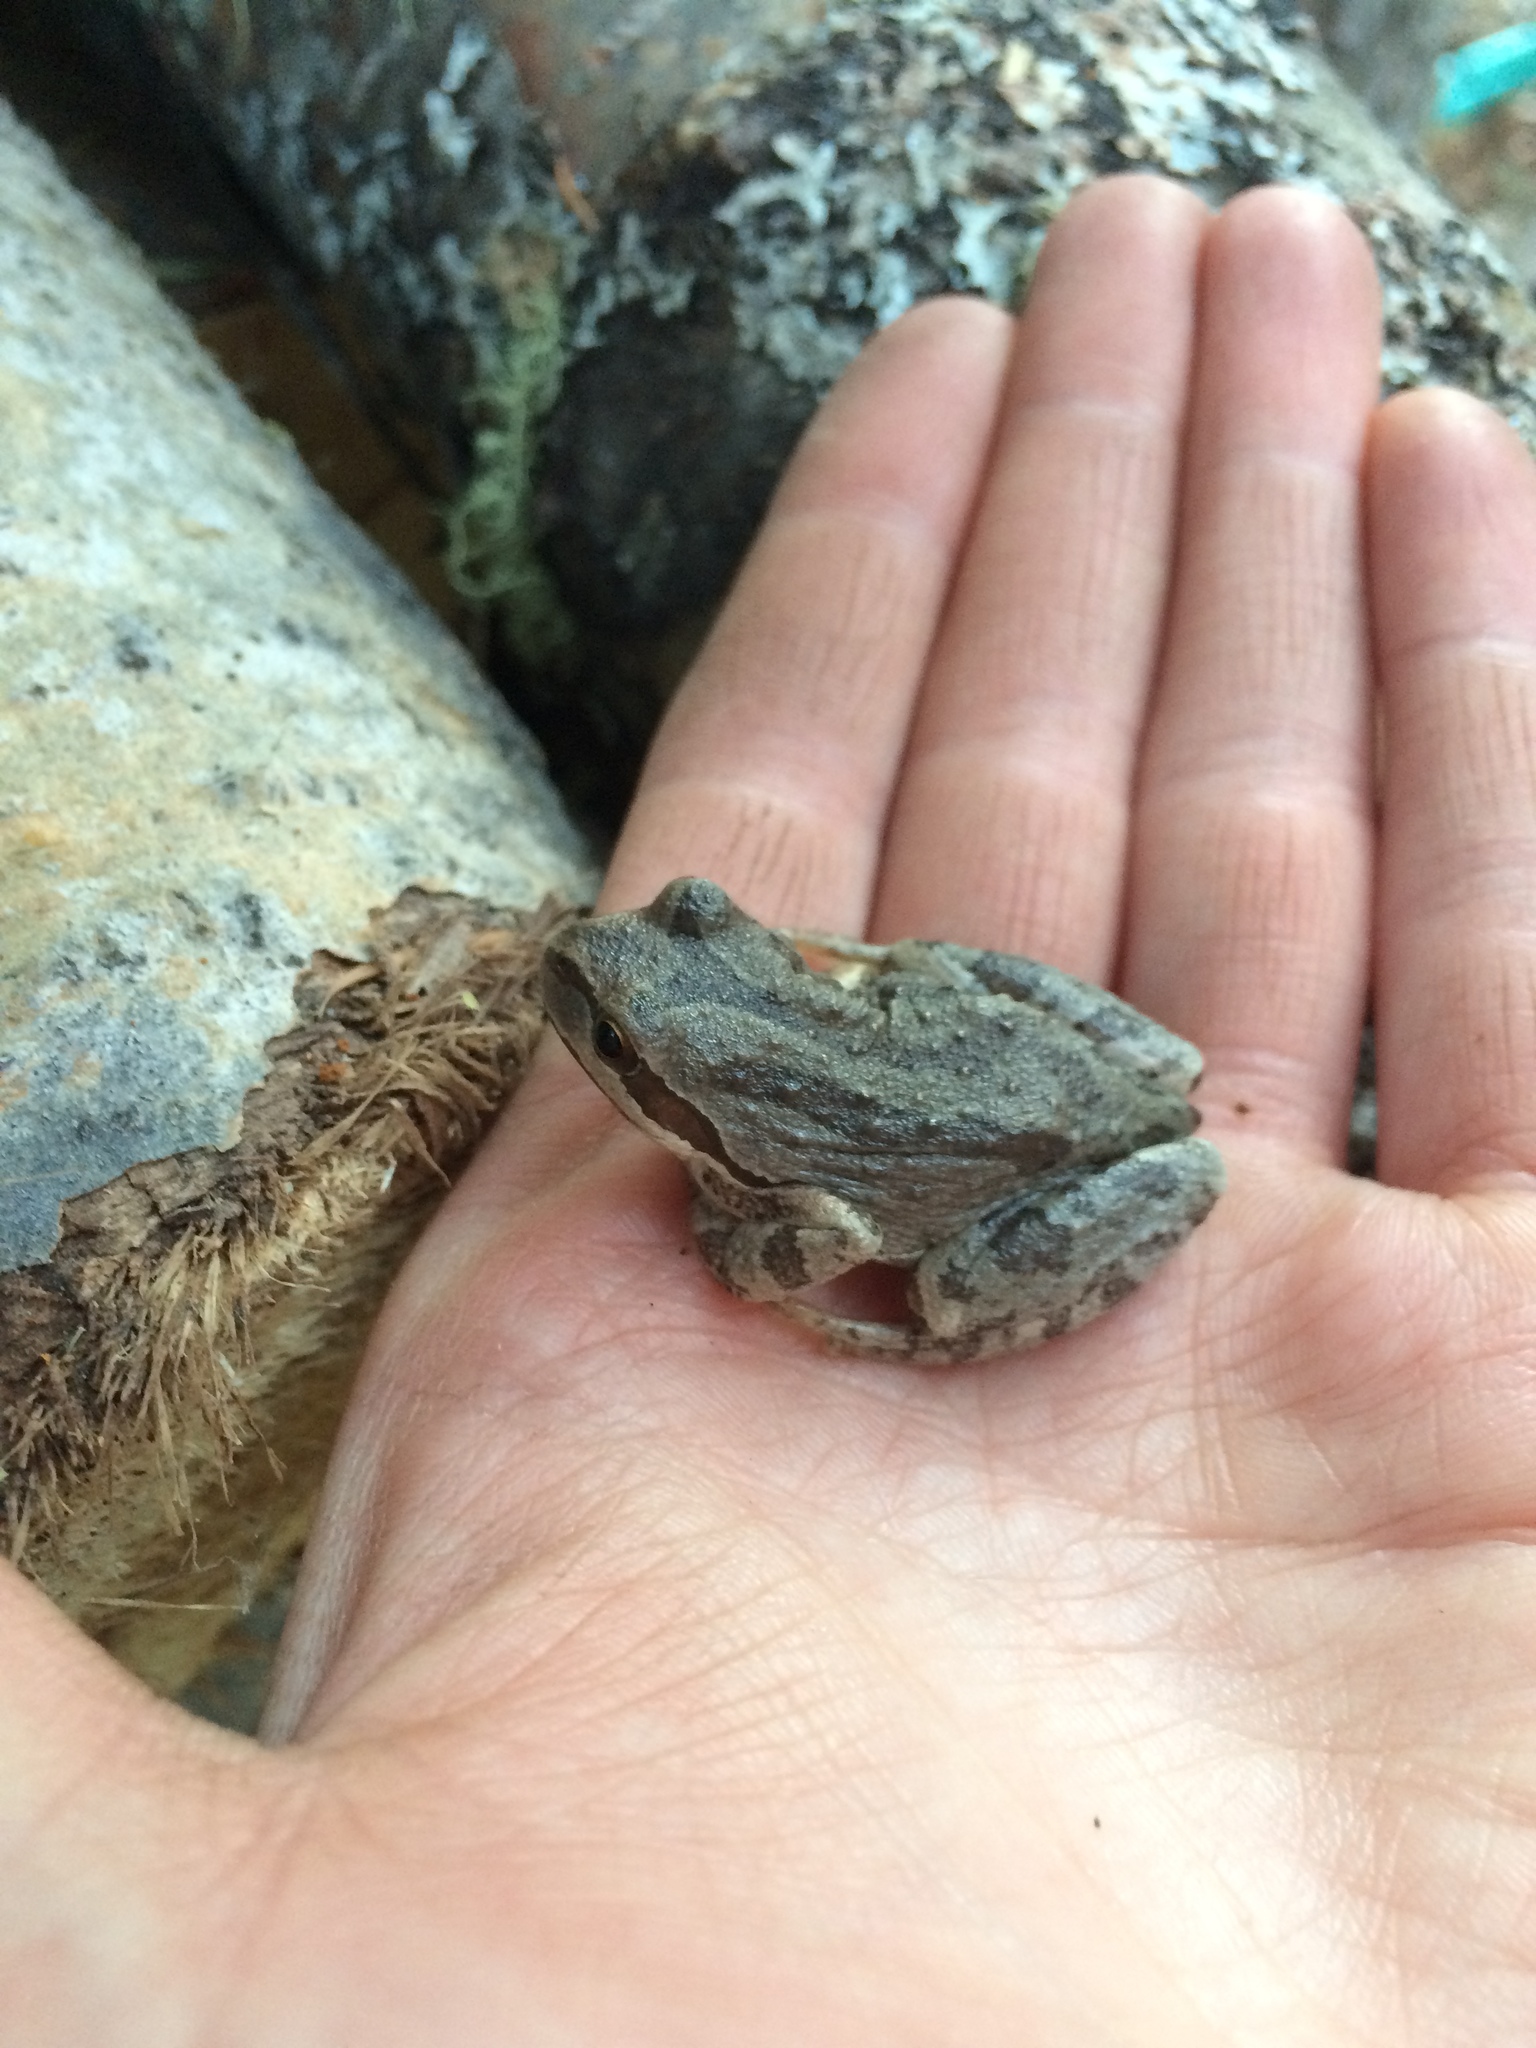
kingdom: Animalia
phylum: Chordata
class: Amphibia
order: Anura
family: Hylidae
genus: Pseudacris
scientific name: Pseudacris regilla
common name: Pacific chorus frog
